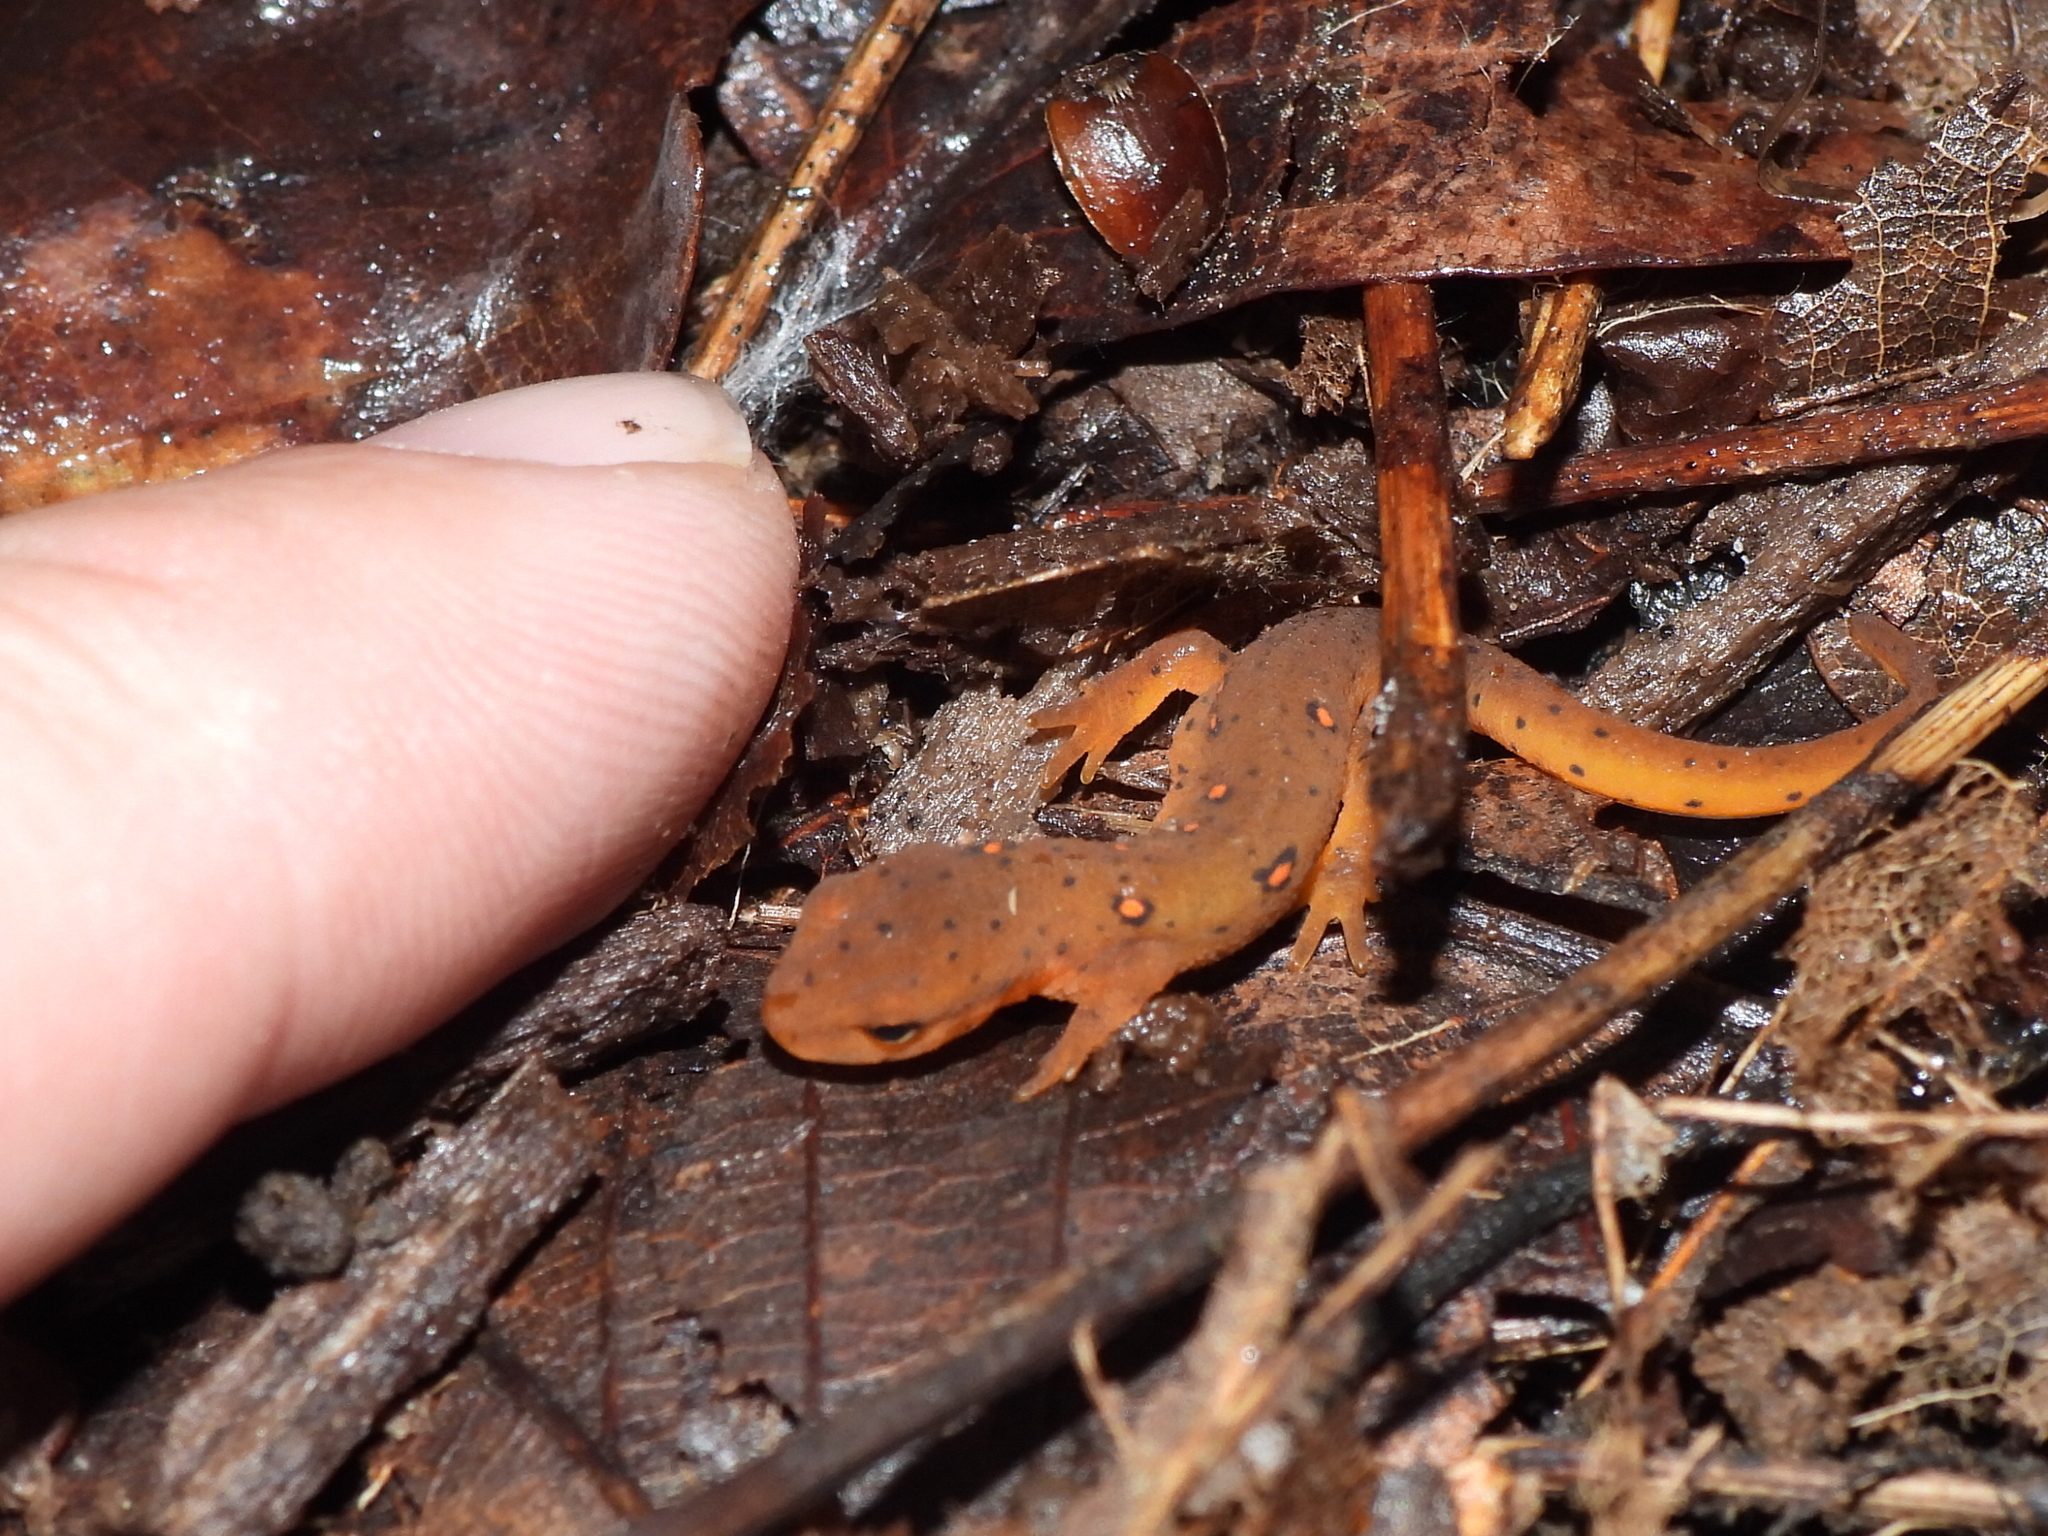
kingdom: Animalia
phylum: Chordata
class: Amphibia
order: Caudata
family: Salamandridae
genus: Notophthalmus
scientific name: Notophthalmus viridescens
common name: Eastern newt
